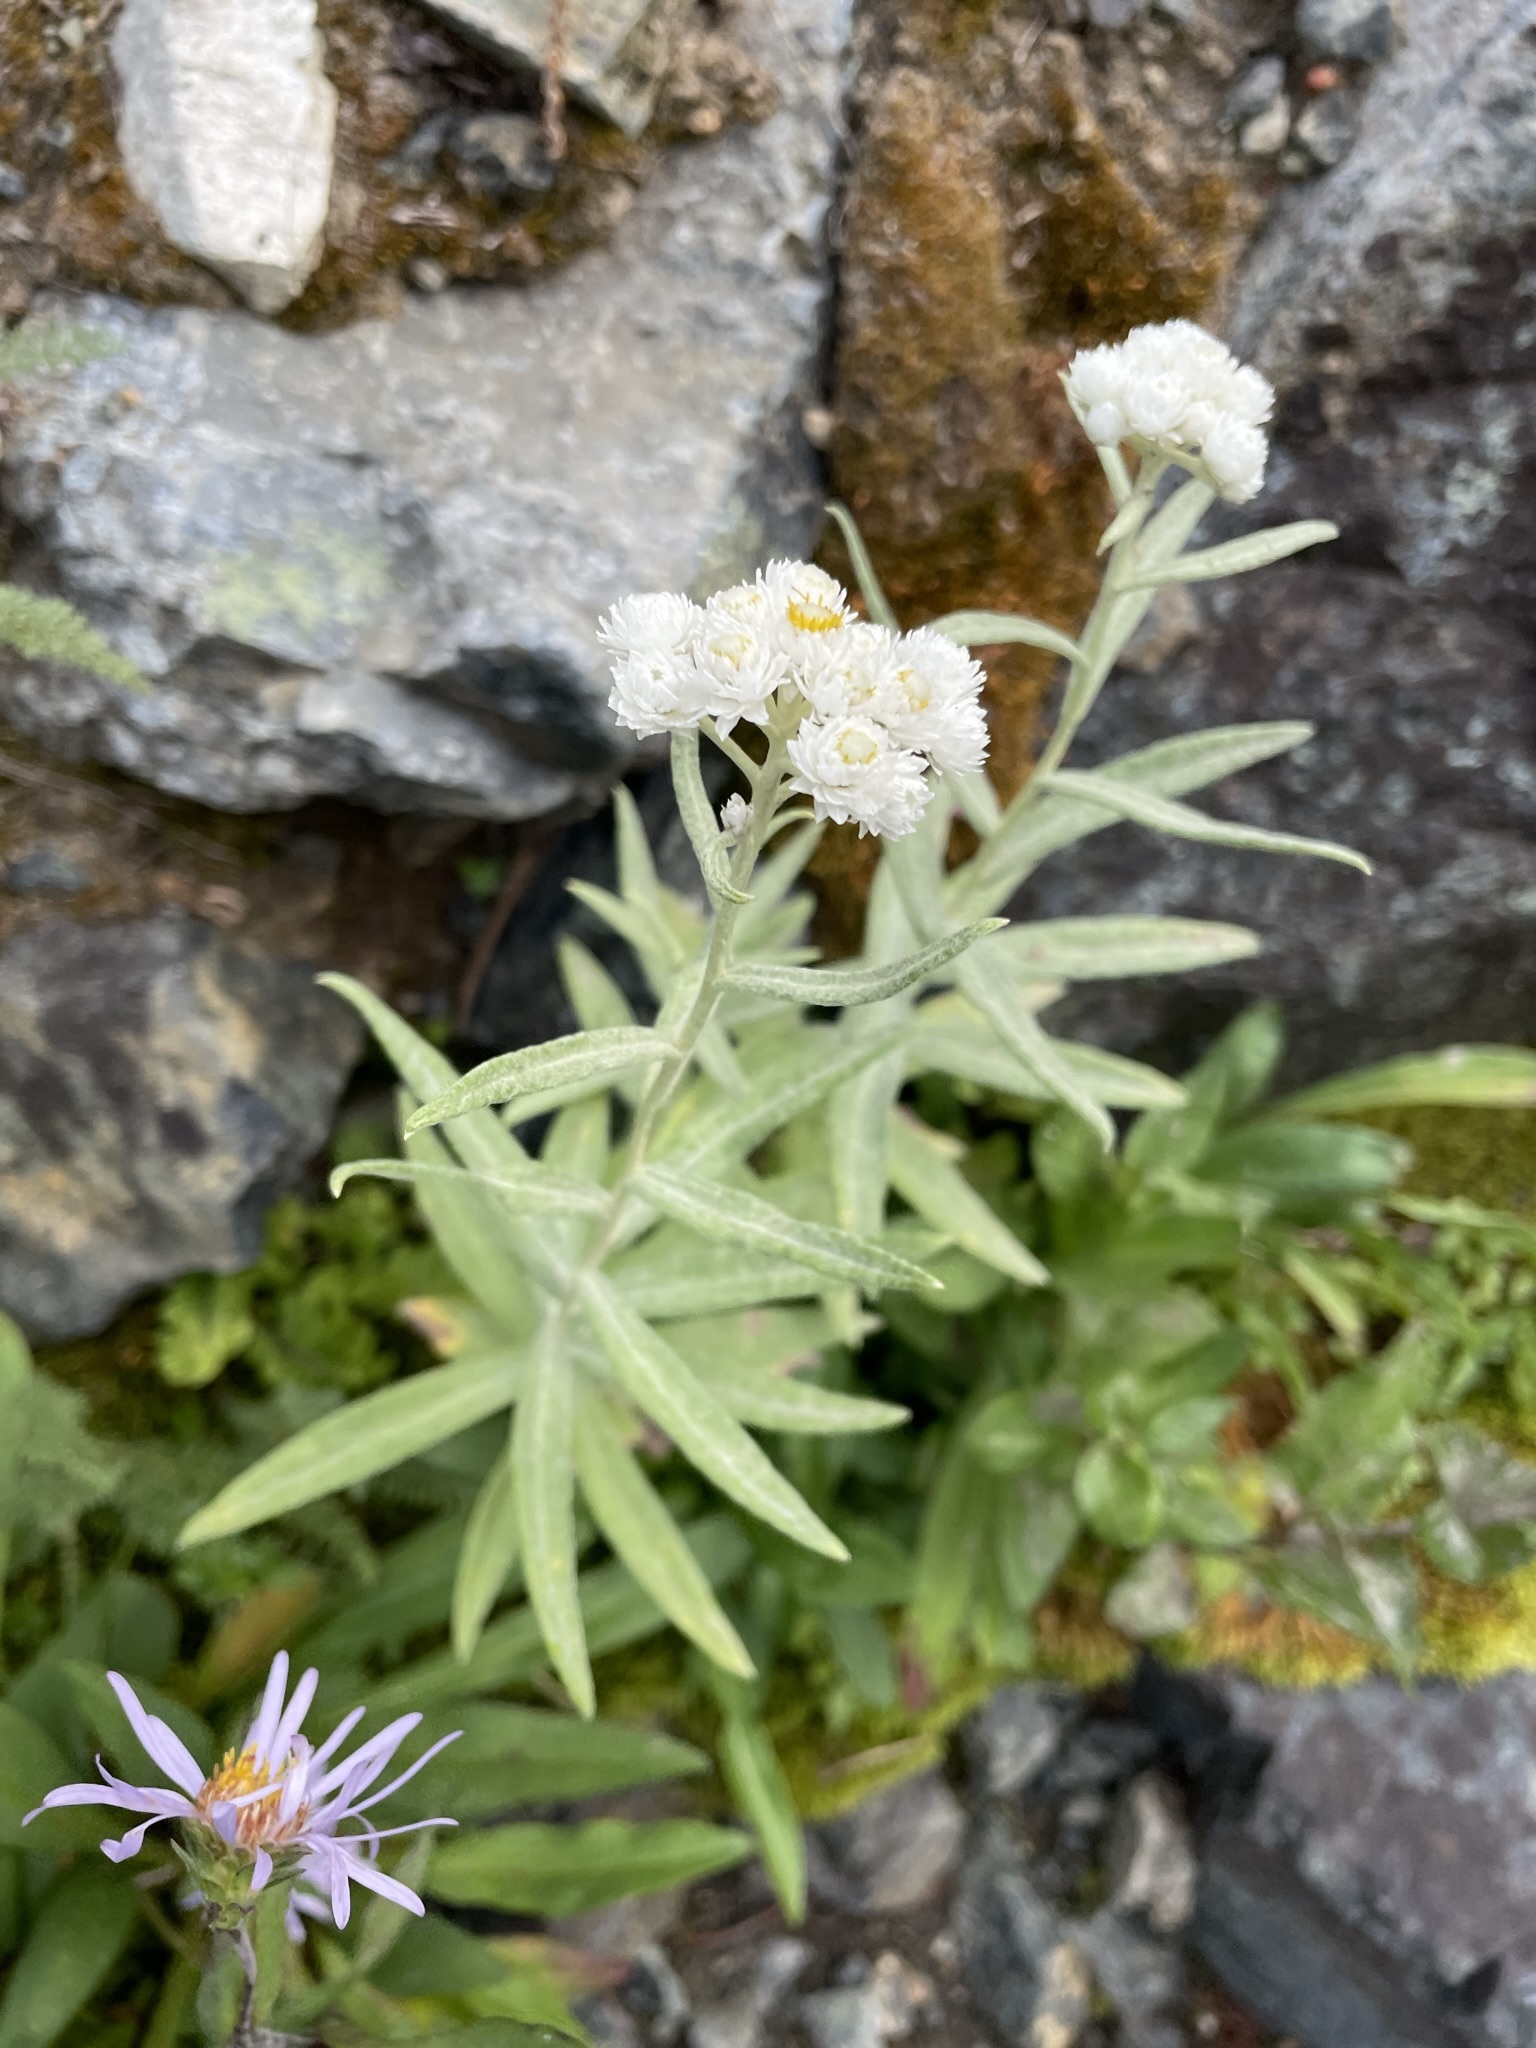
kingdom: Plantae
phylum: Tracheophyta
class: Magnoliopsida
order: Asterales
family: Asteraceae
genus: Anaphalis
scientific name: Anaphalis margaritacea
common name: Pearly everlasting
